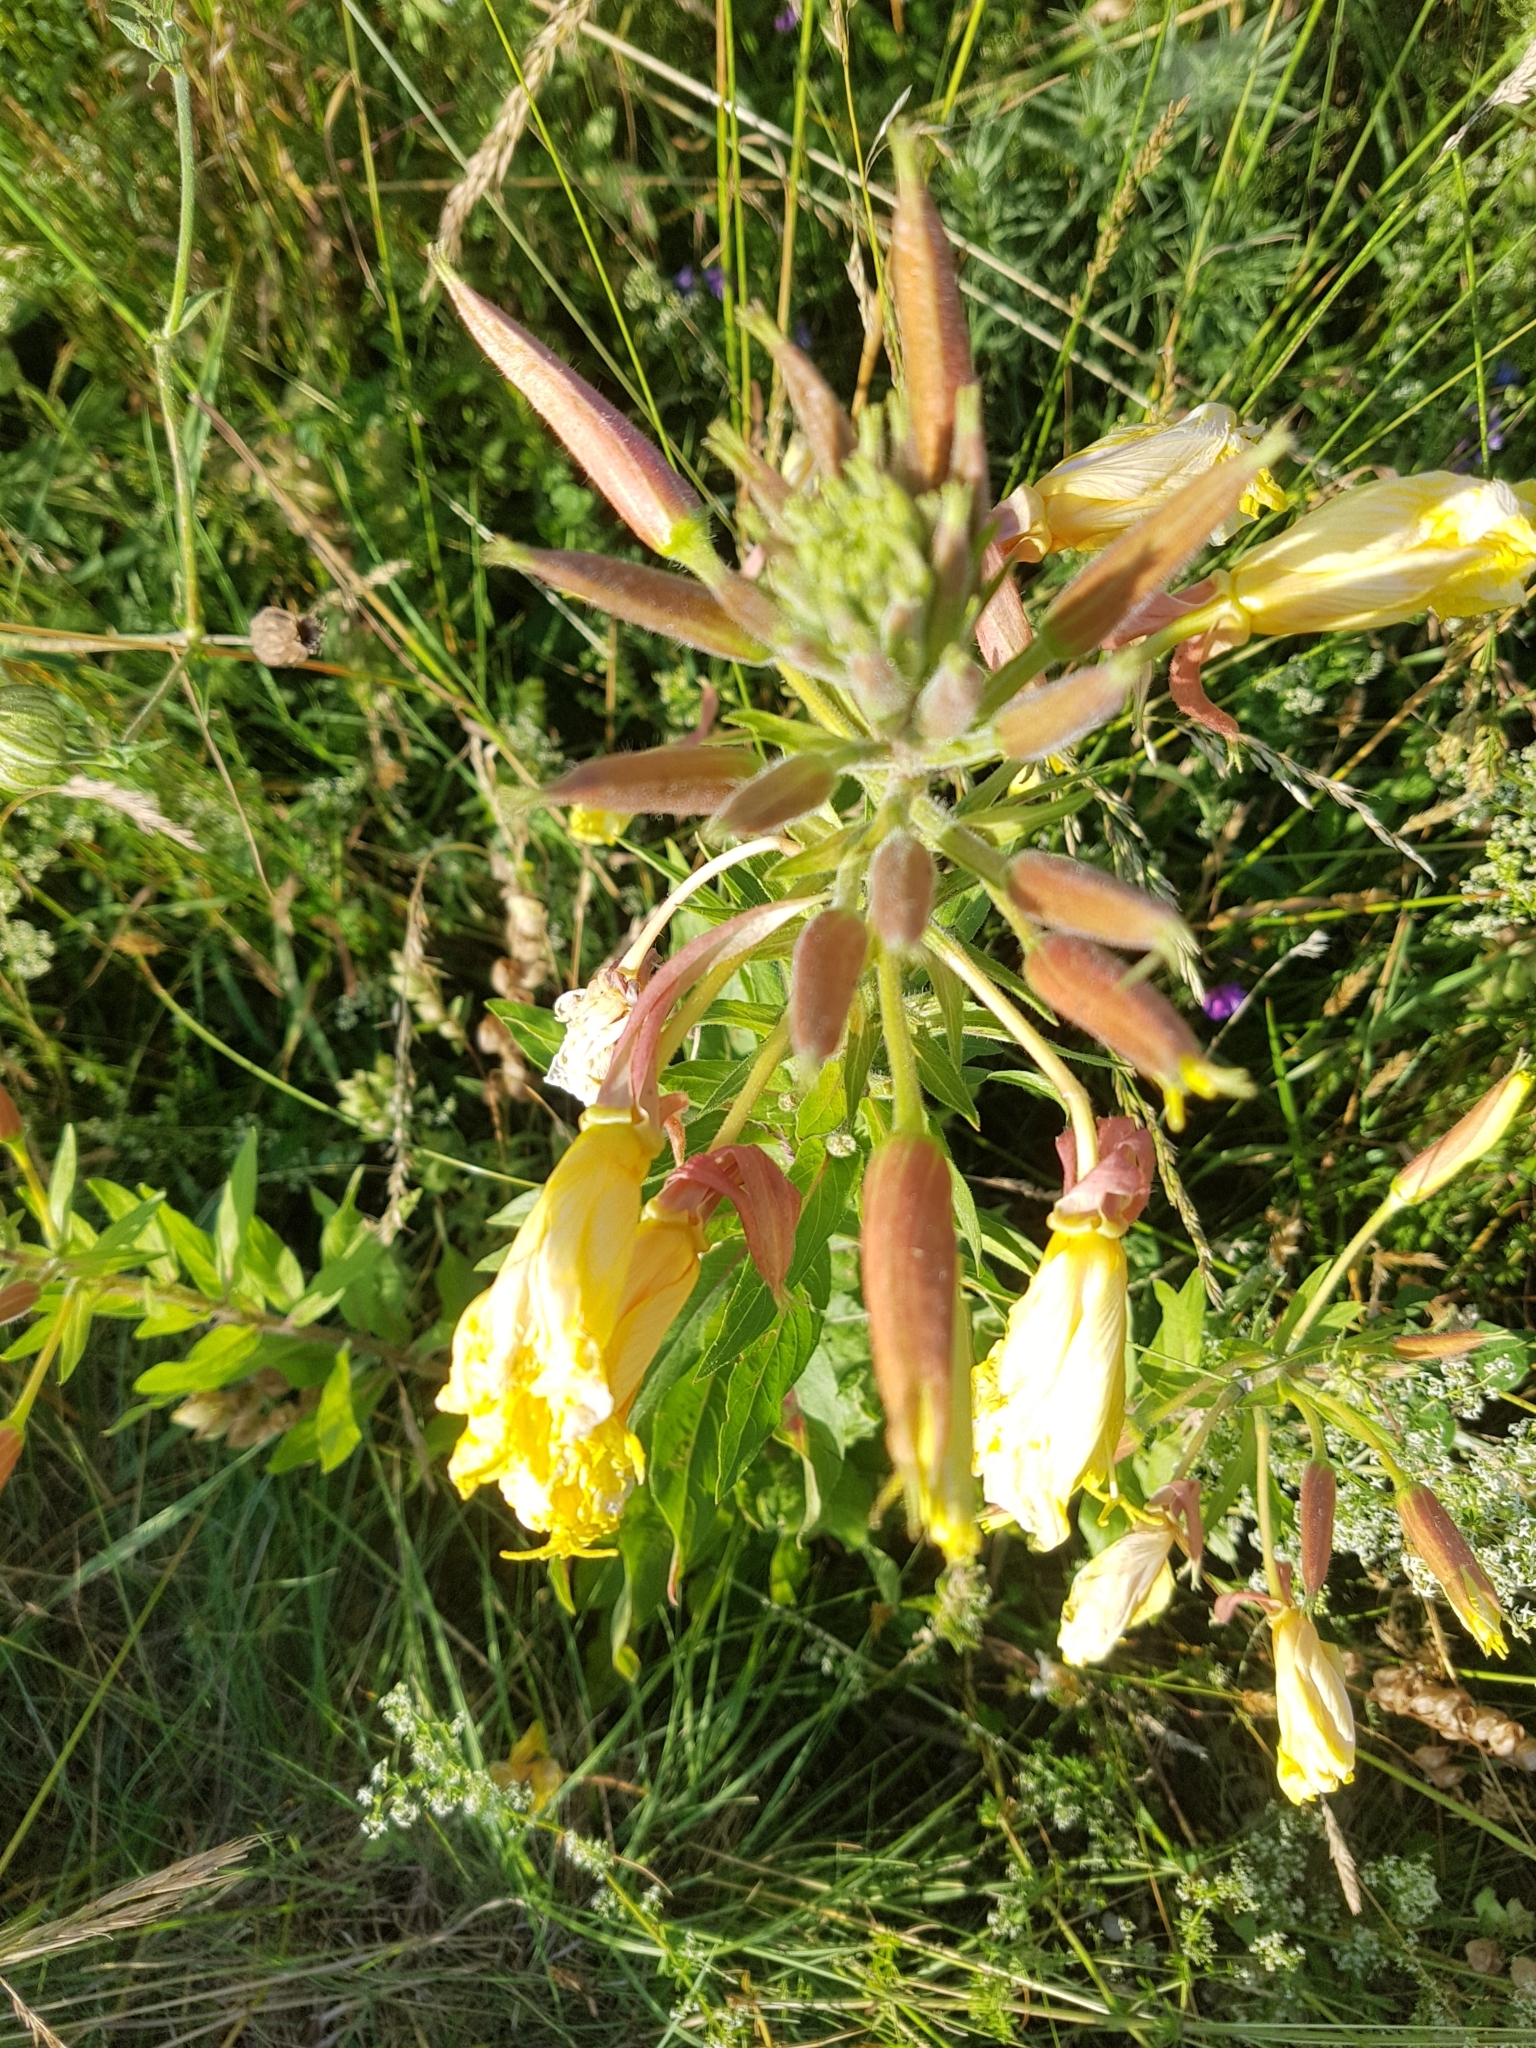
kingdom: Plantae
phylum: Tracheophyta
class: Magnoliopsida
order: Myrtales
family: Onagraceae
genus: Oenothera
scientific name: Oenothera glazioviana
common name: Large-flowered evening-primrose
